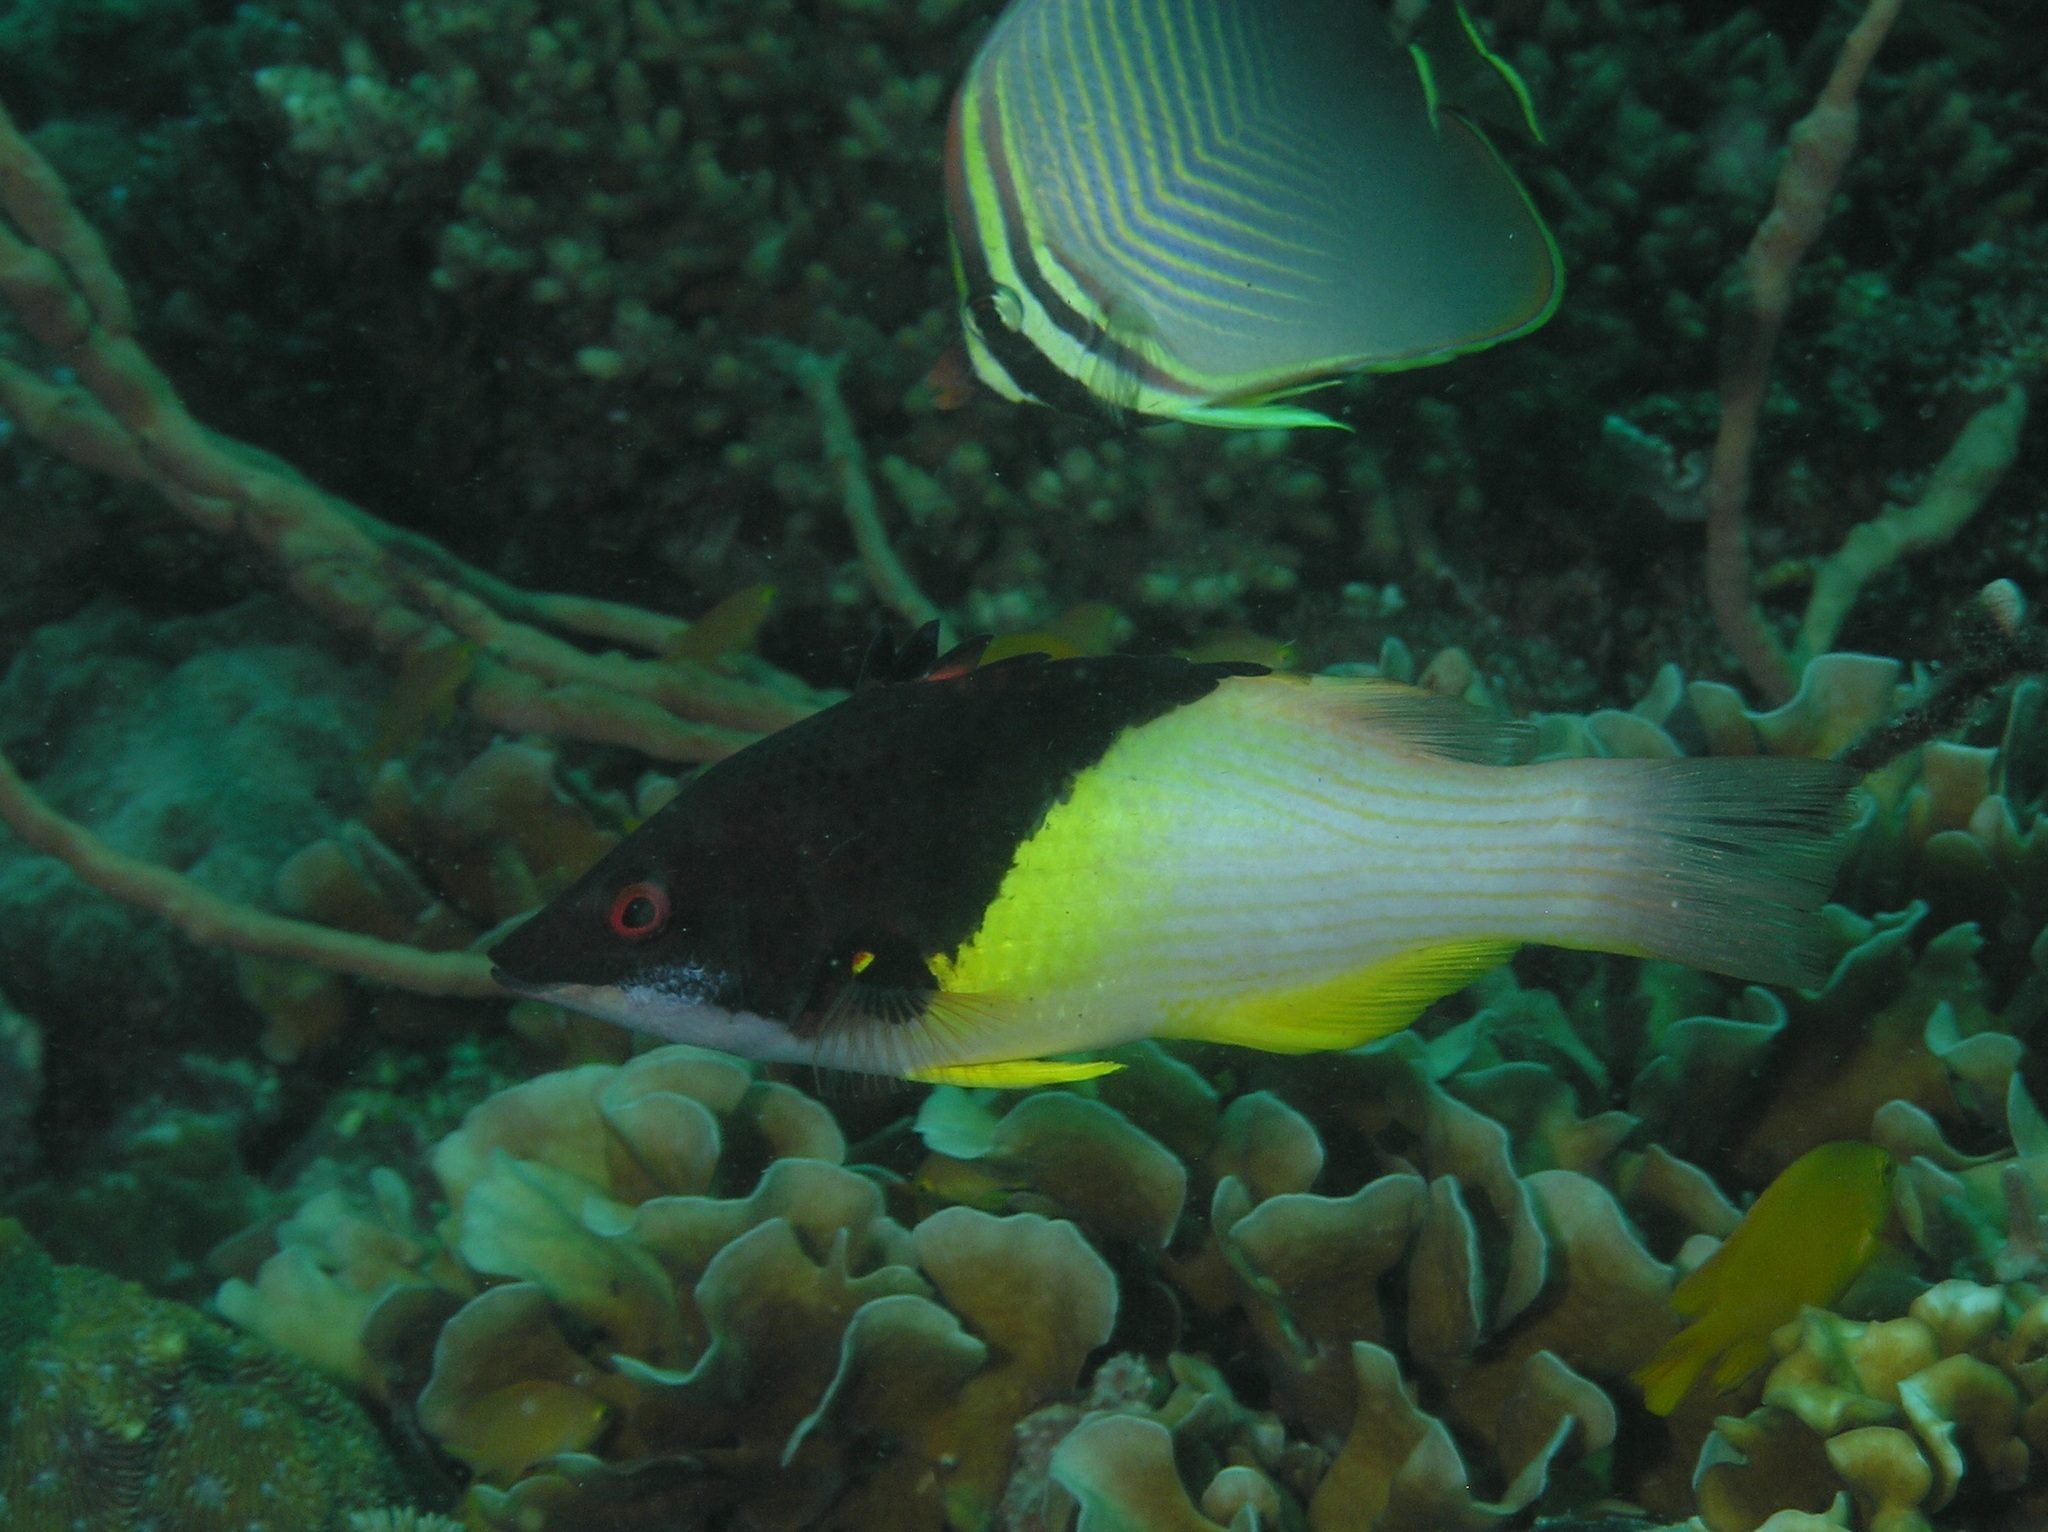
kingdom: Animalia
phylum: Chordata
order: Perciformes
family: Labridae
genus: Bodianus
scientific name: Bodianus mesothorax
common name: Coral hogfish
